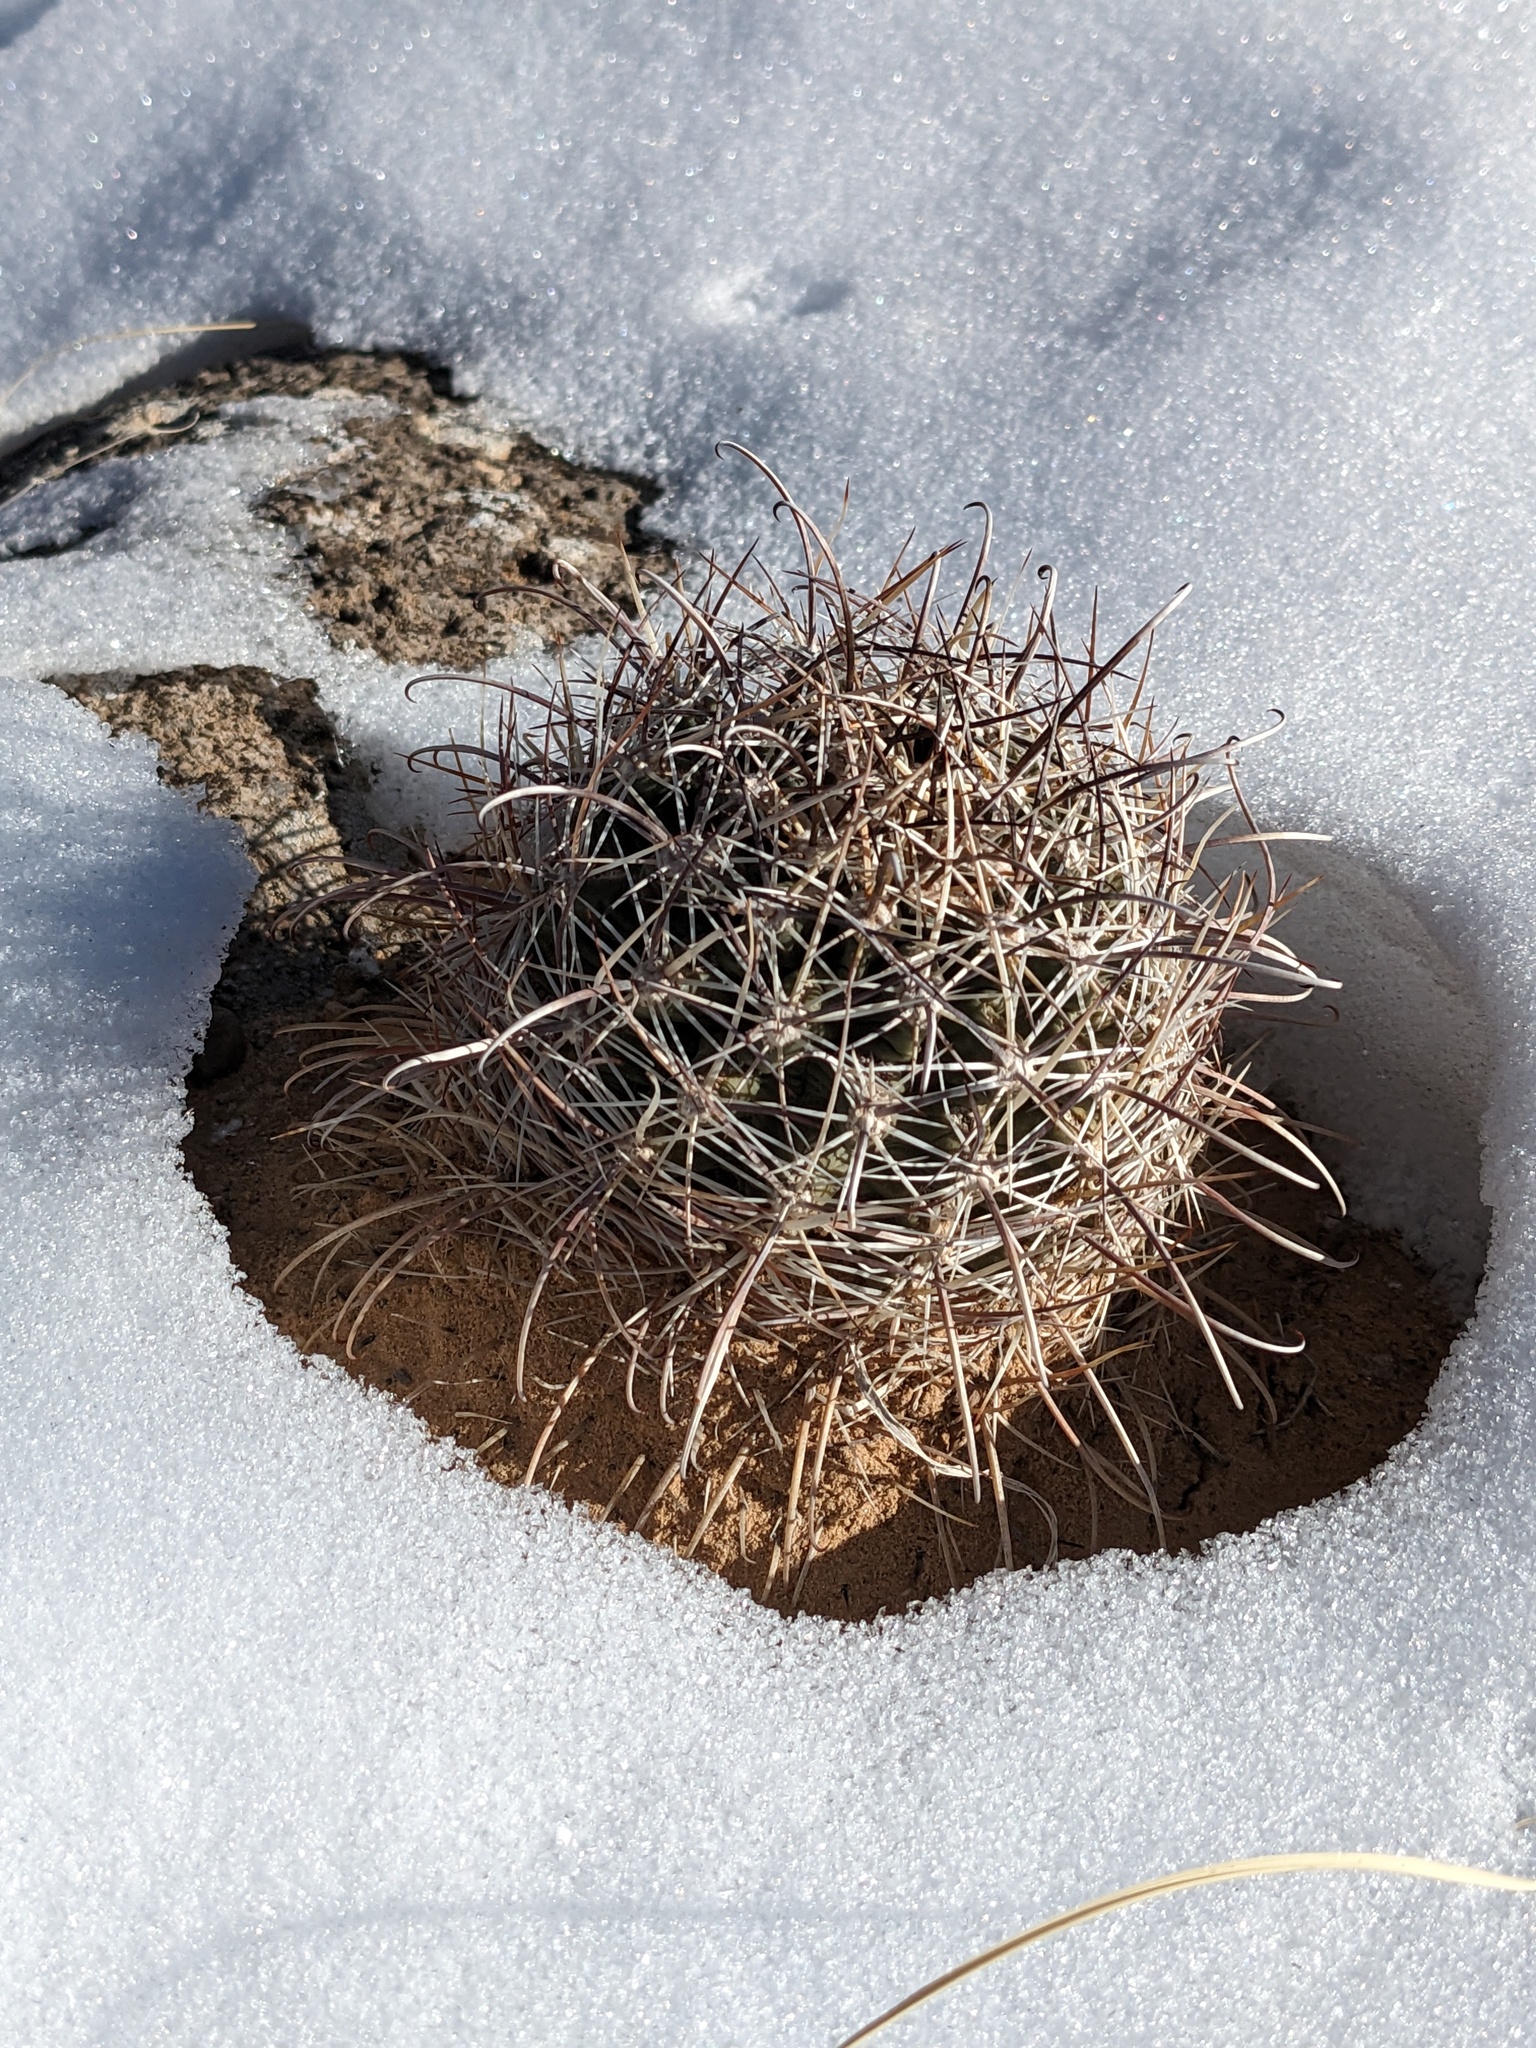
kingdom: Plantae
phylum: Tracheophyta
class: Magnoliopsida
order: Caryophyllales
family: Cactaceae
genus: Sclerocactus
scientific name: Sclerocactus parviflorus
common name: Small-flower fishhook cactus
